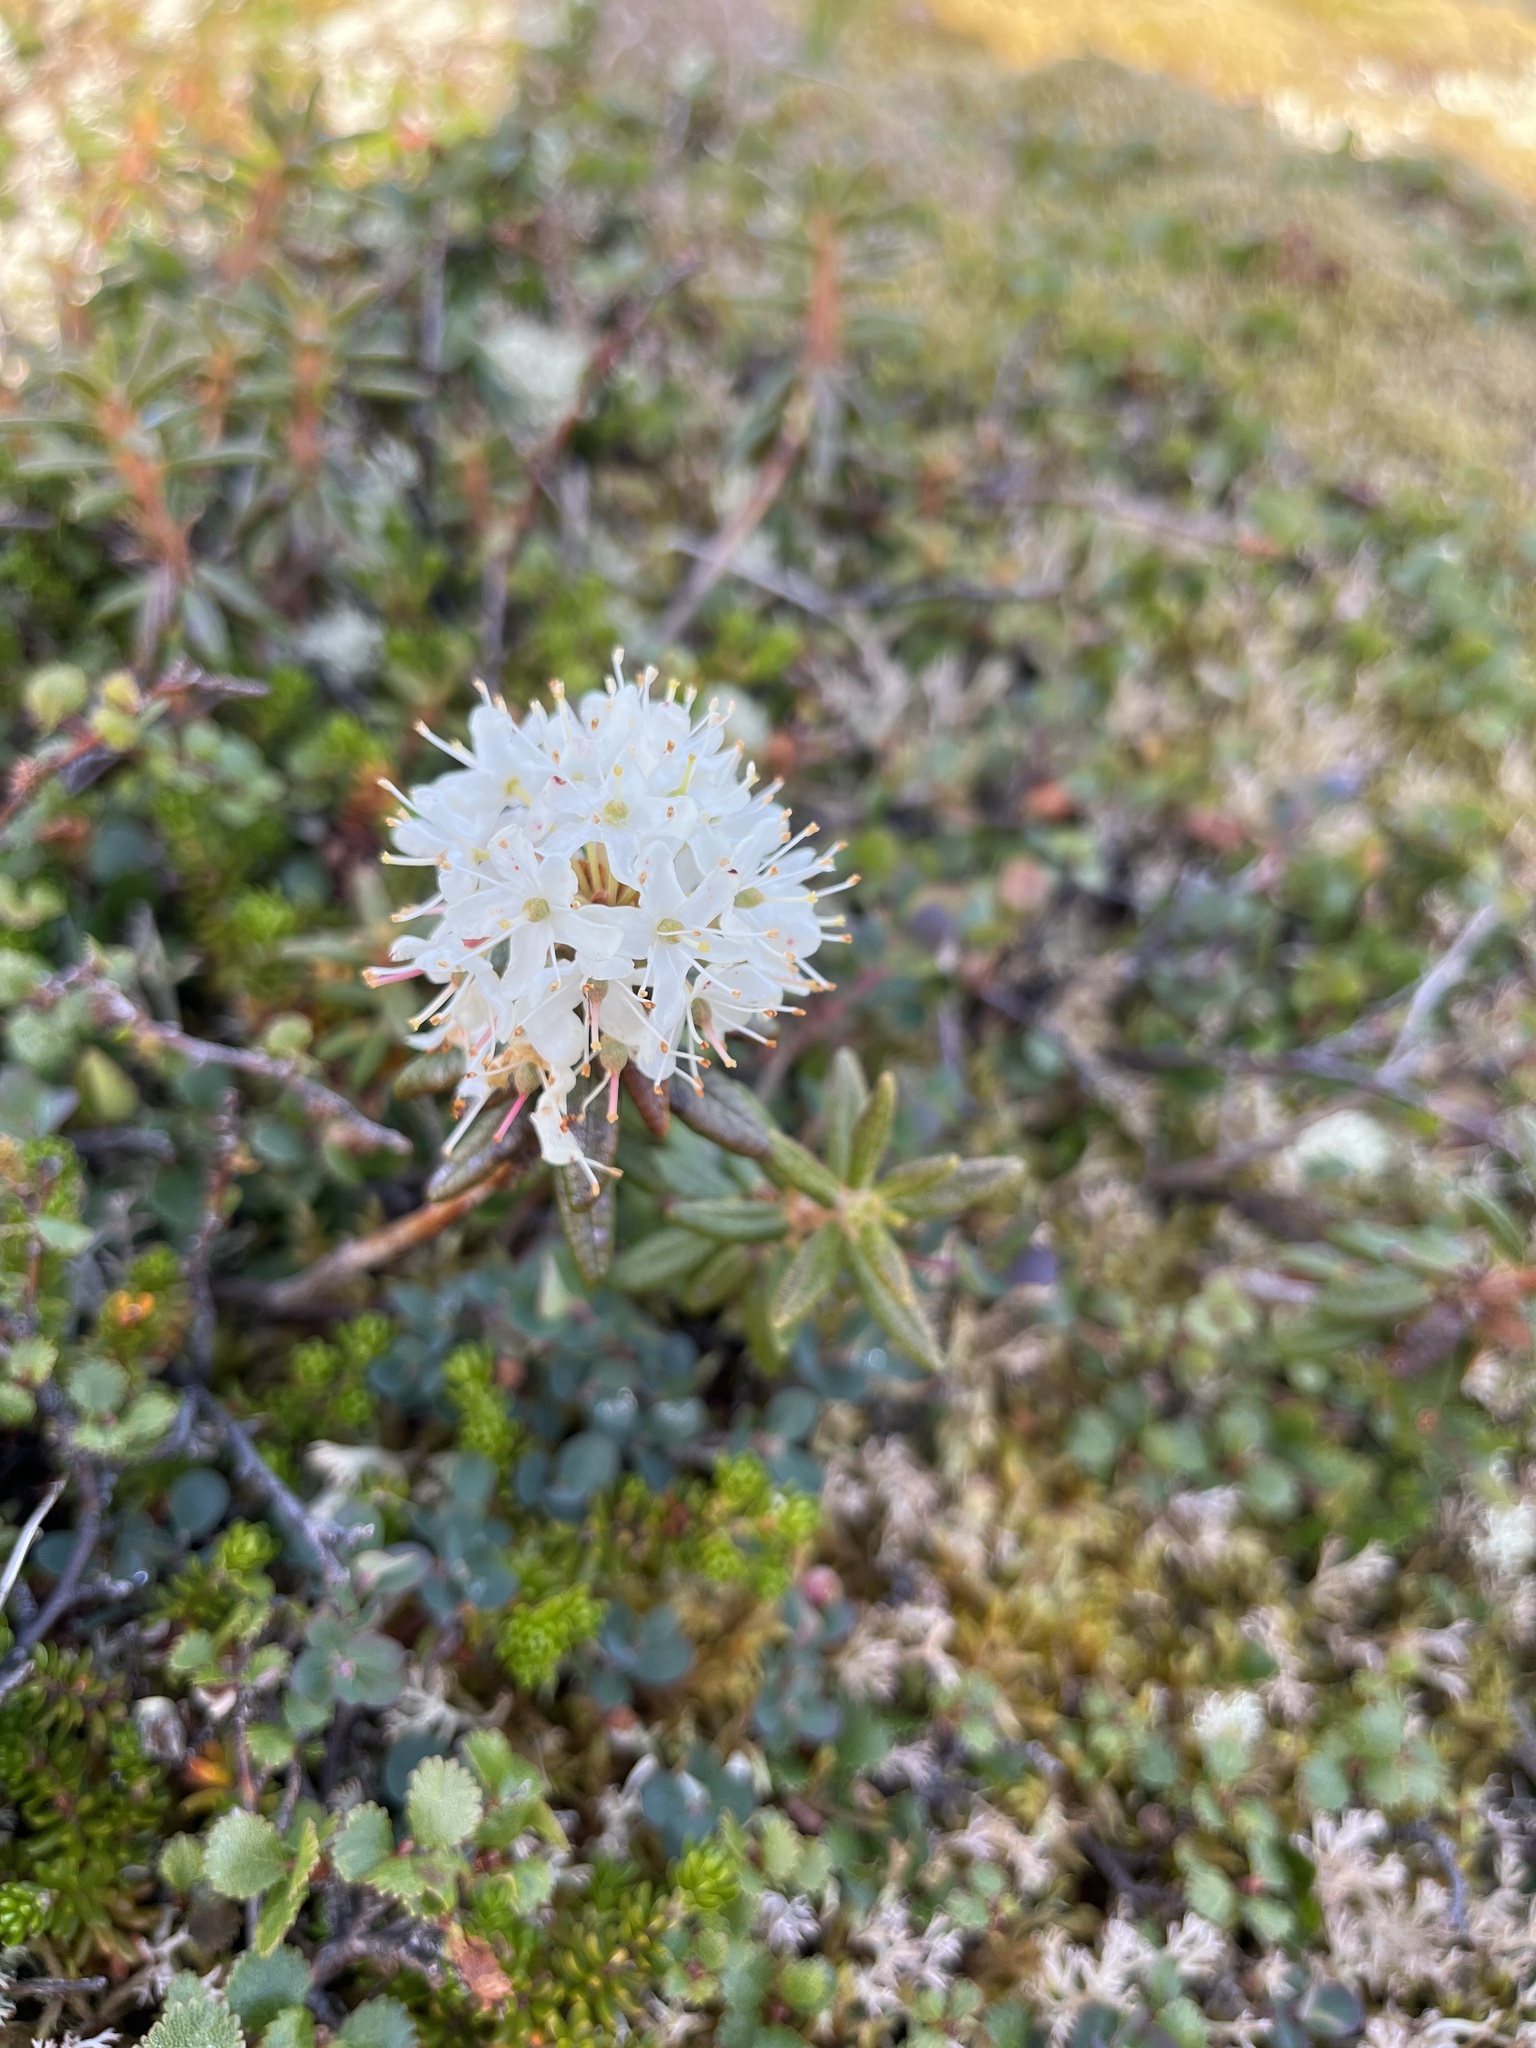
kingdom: Plantae
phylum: Tracheophyta
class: Magnoliopsida
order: Ericales
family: Ericaceae
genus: Rhododendron
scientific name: Rhododendron groenlandicum
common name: Bog labrador tea
